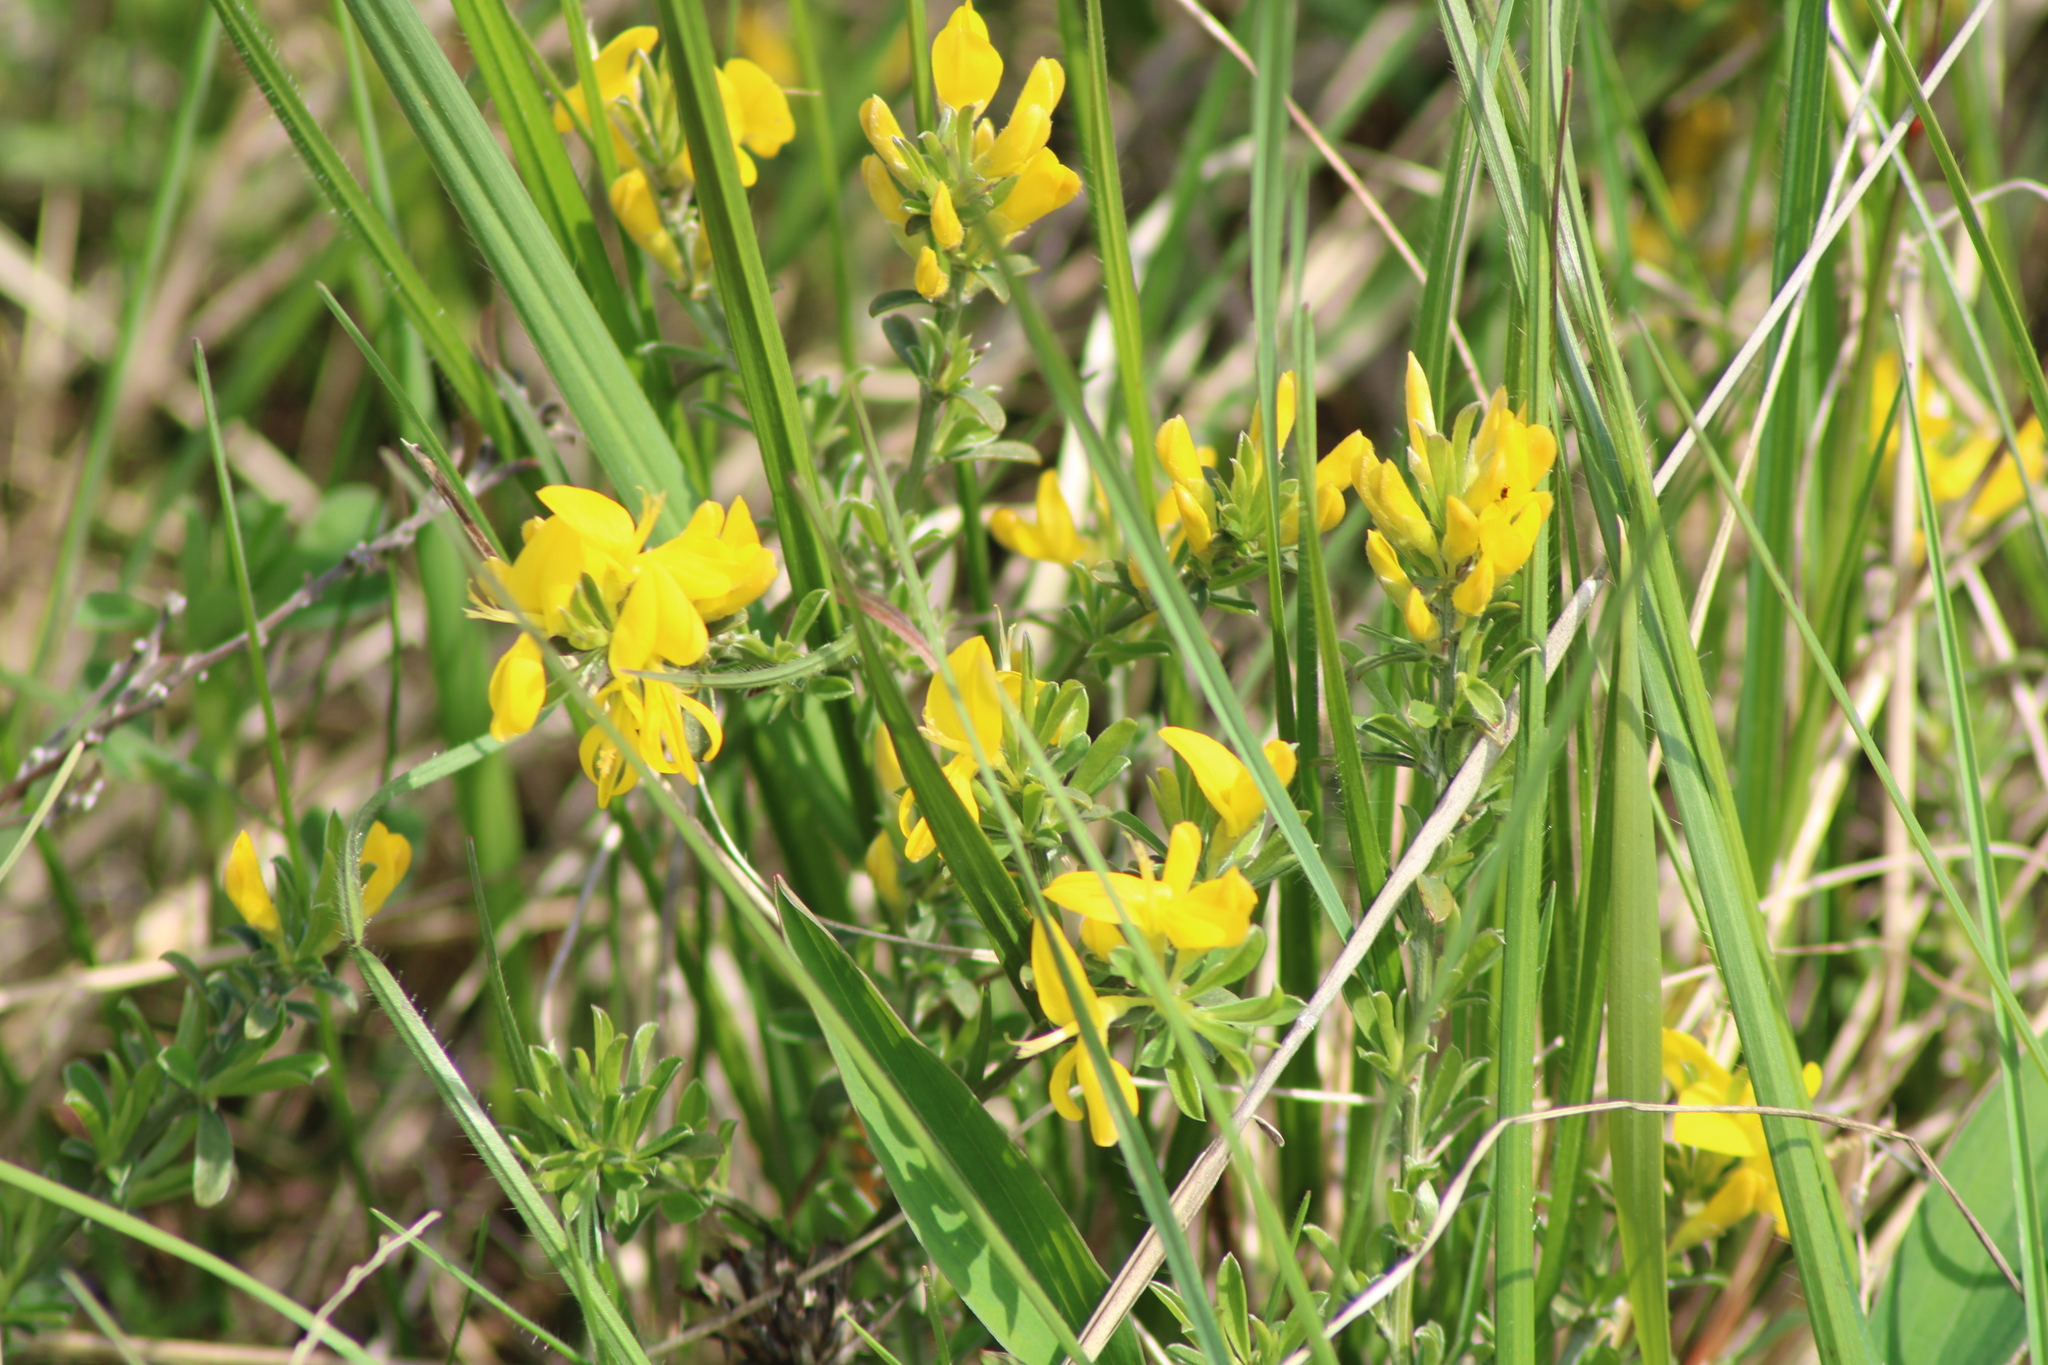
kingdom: Plantae
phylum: Tracheophyta
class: Magnoliopsida
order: Fabales
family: Fabaceae
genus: Genista
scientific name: Genista pilosa
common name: Hairy greenweed
